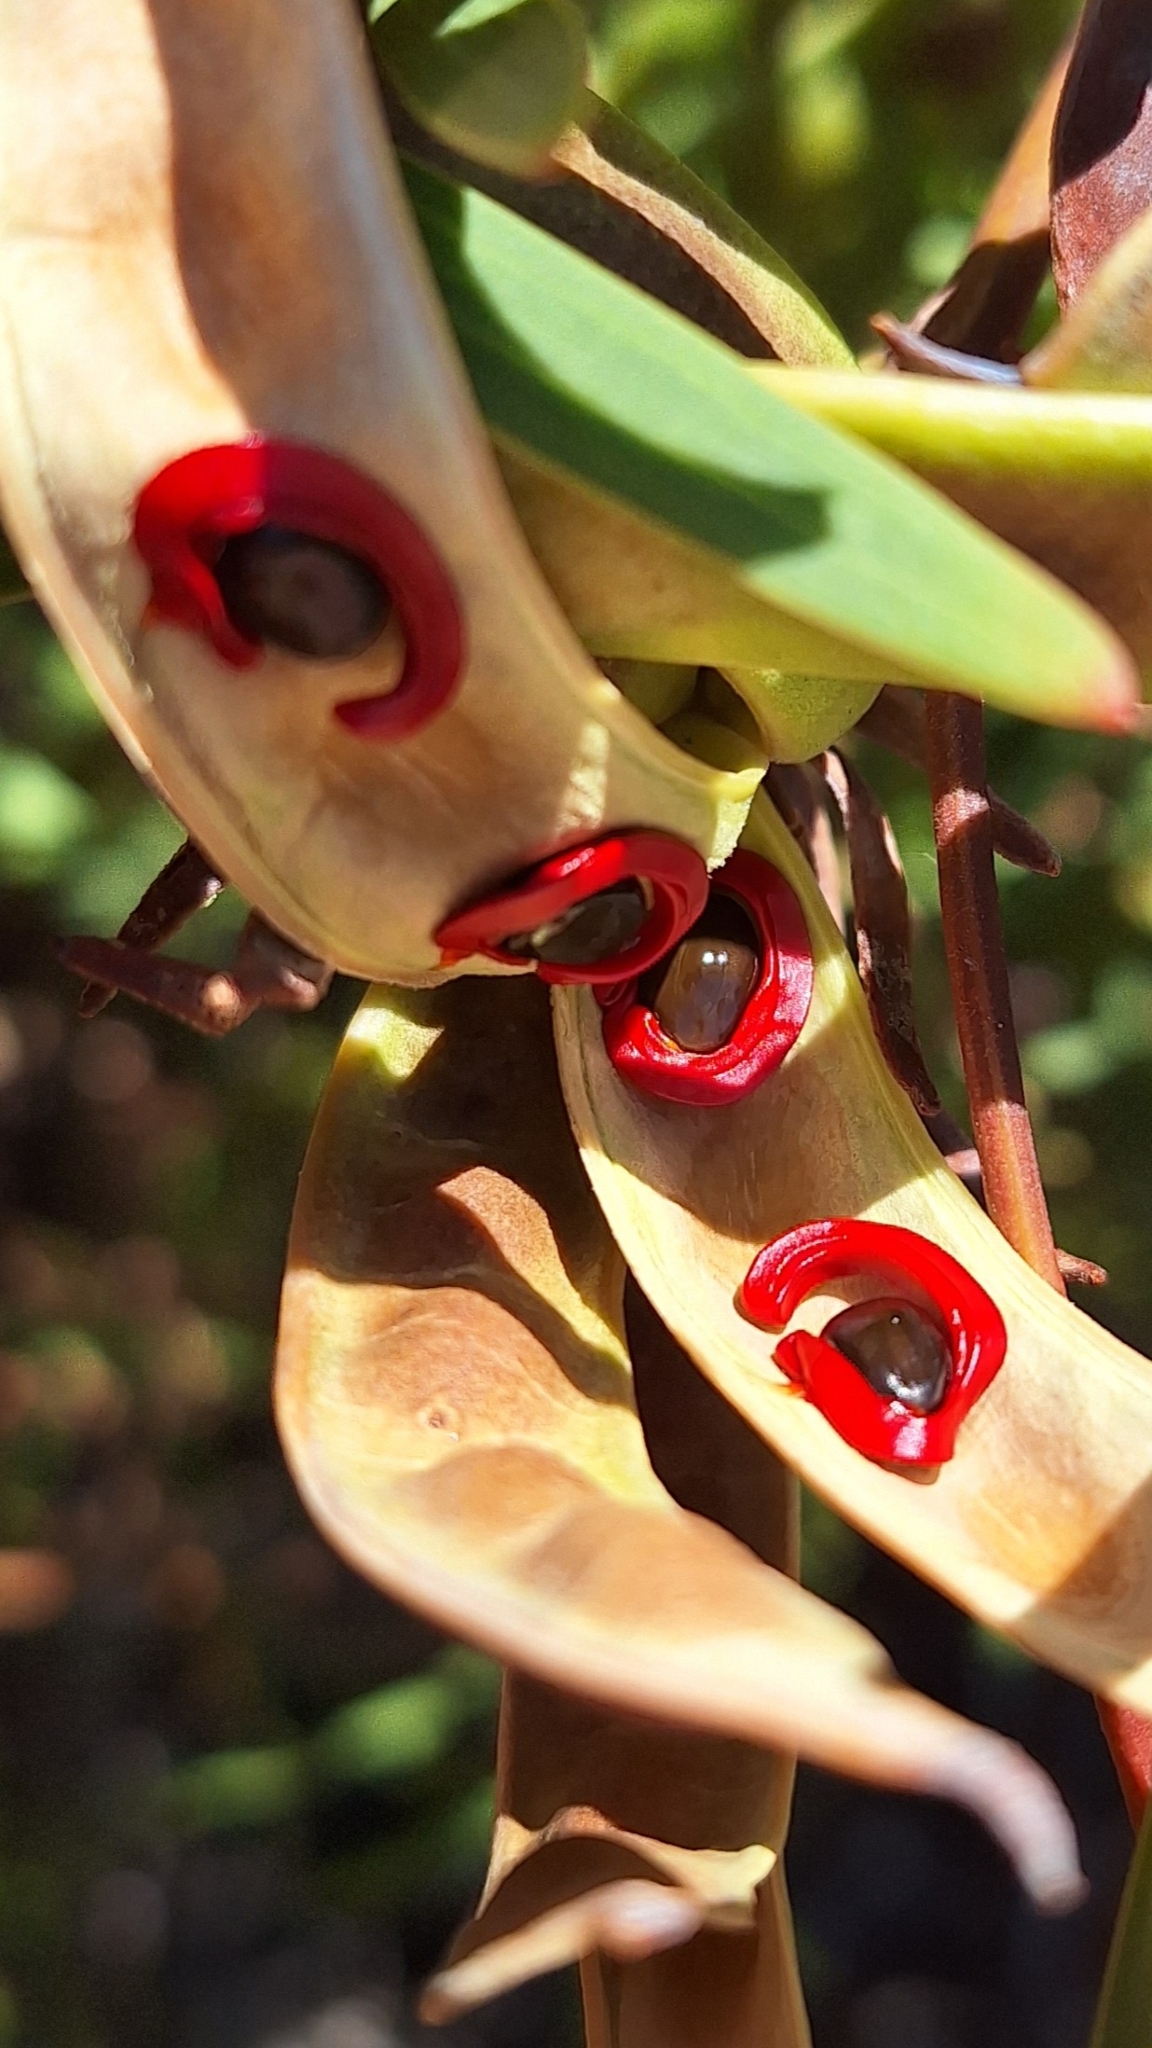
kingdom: Plantae
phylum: Tracheophyta
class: Magnoliopsida
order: Fabales
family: Fabaceae
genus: Acacia
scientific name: Acacia cyclops
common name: Coastal wattle
